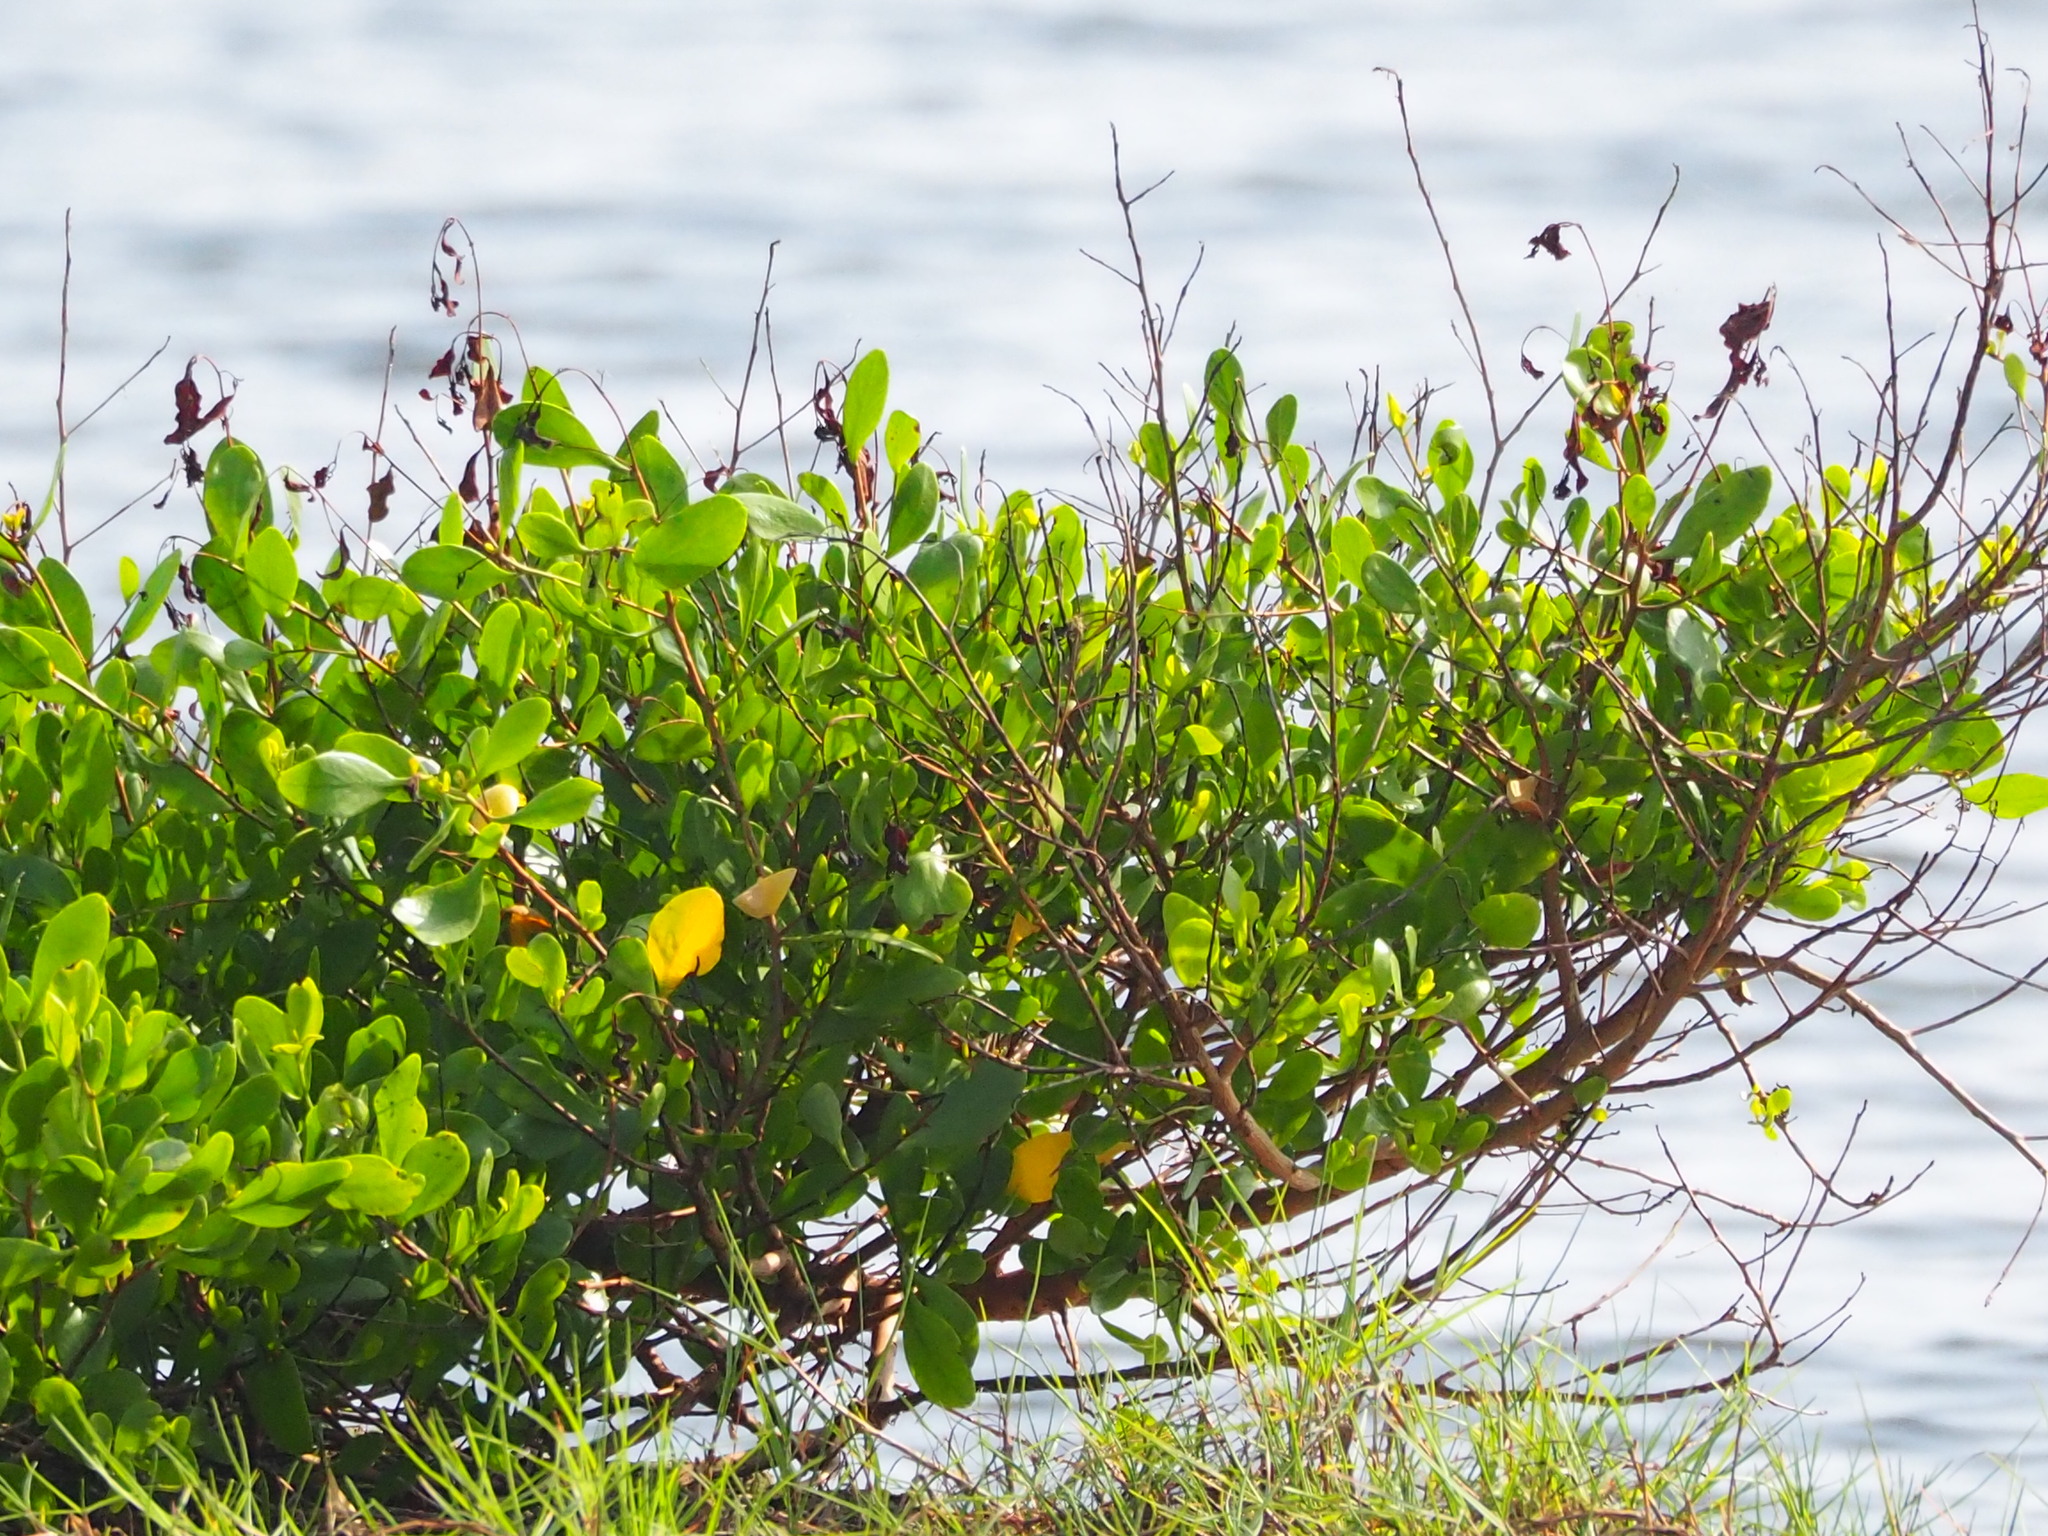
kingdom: Plantae
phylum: Tracheophyta
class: Magnoliopsida
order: Myrtales
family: Combretaceae
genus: Lumnitzera
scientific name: Lumnitzera racemosa
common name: White-flowered black mangrove
